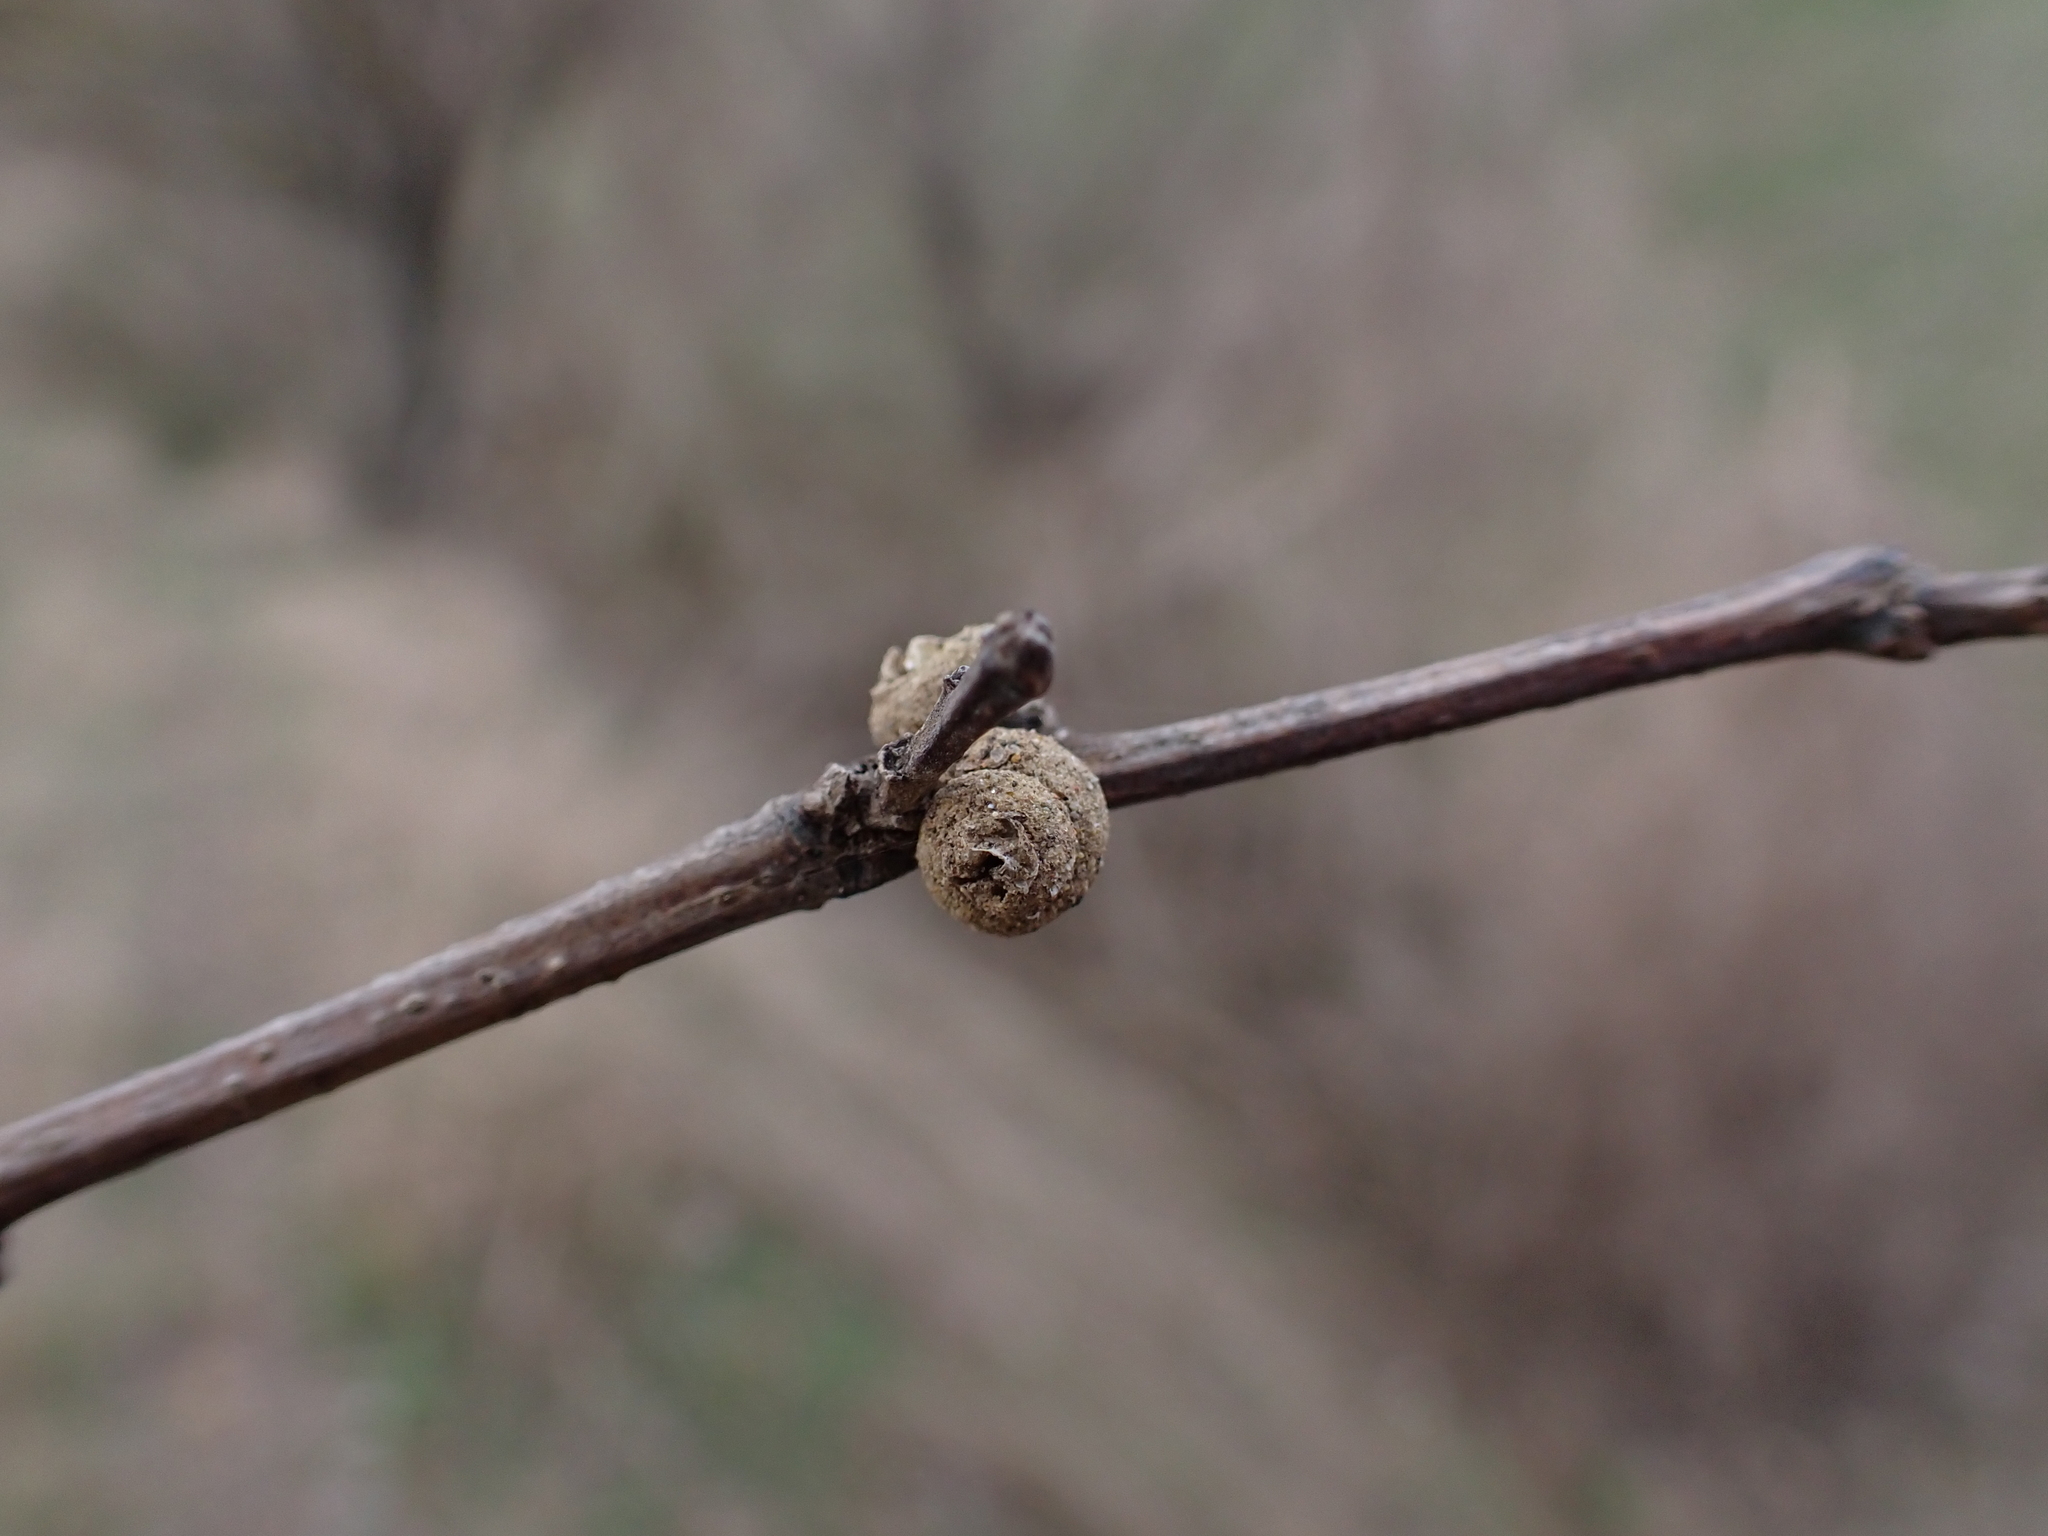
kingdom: Animalia
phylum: Arthropoda
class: Insecta
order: Lepidoptera
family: Psychidae
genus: Apterona
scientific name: Apterona helicoidella
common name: Moth
